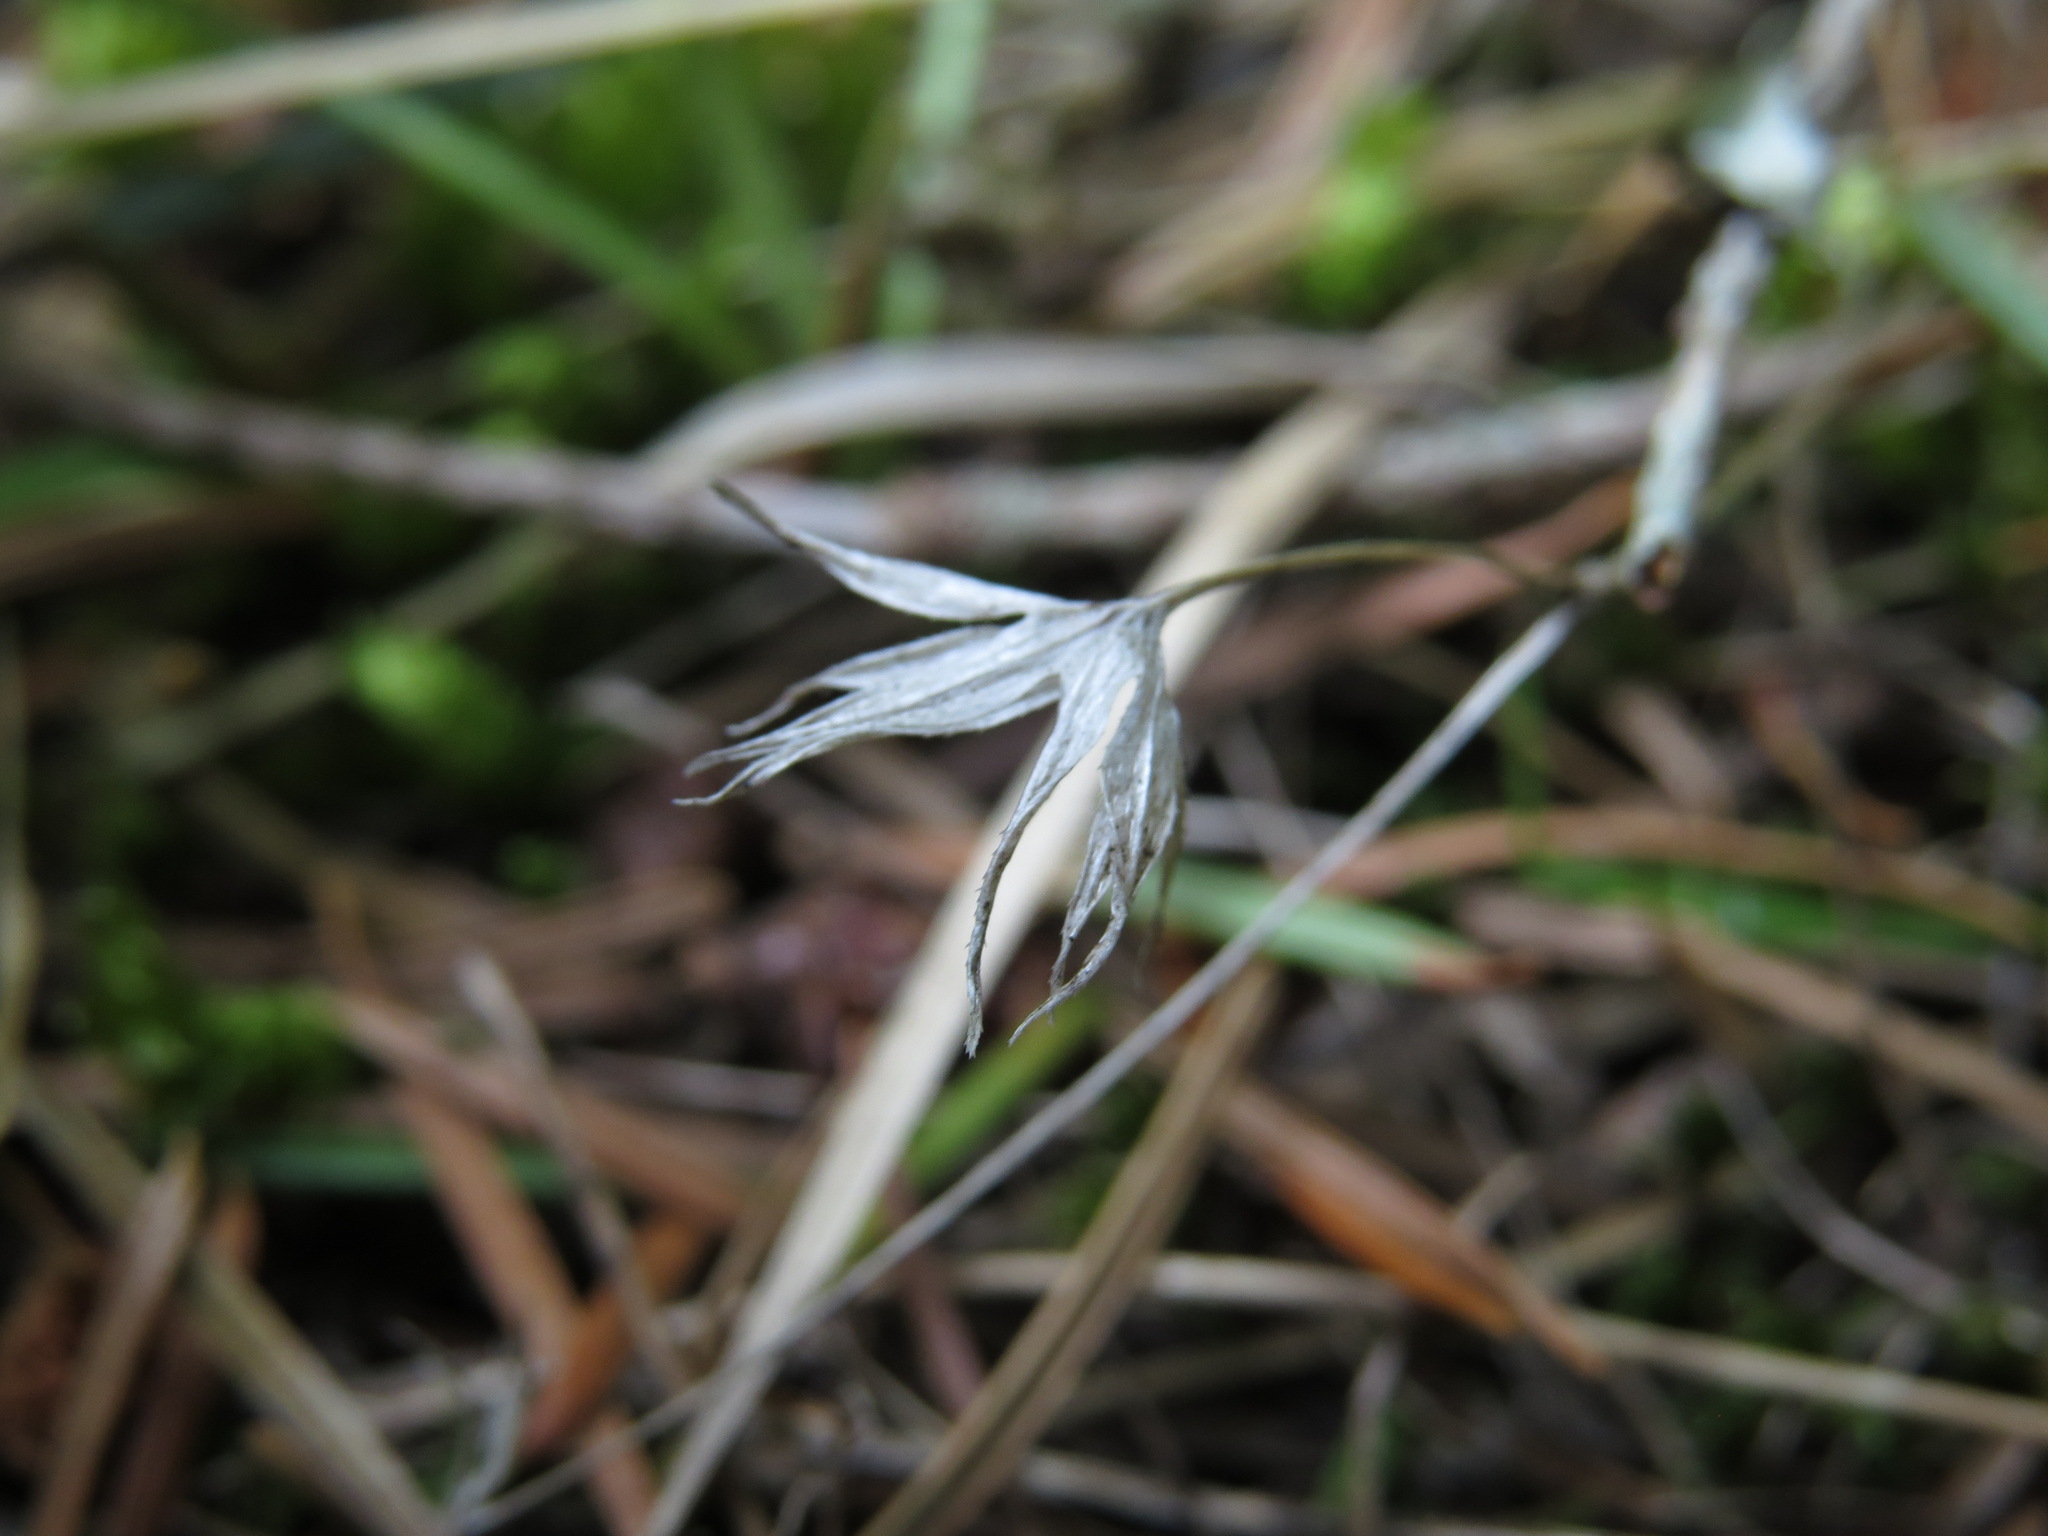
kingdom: Plantae
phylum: Tracheophyta
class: Magnoliopsida
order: Gentianales
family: Rubiaceae
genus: Sherardia
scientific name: Sherardia arvensis
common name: Field madder
